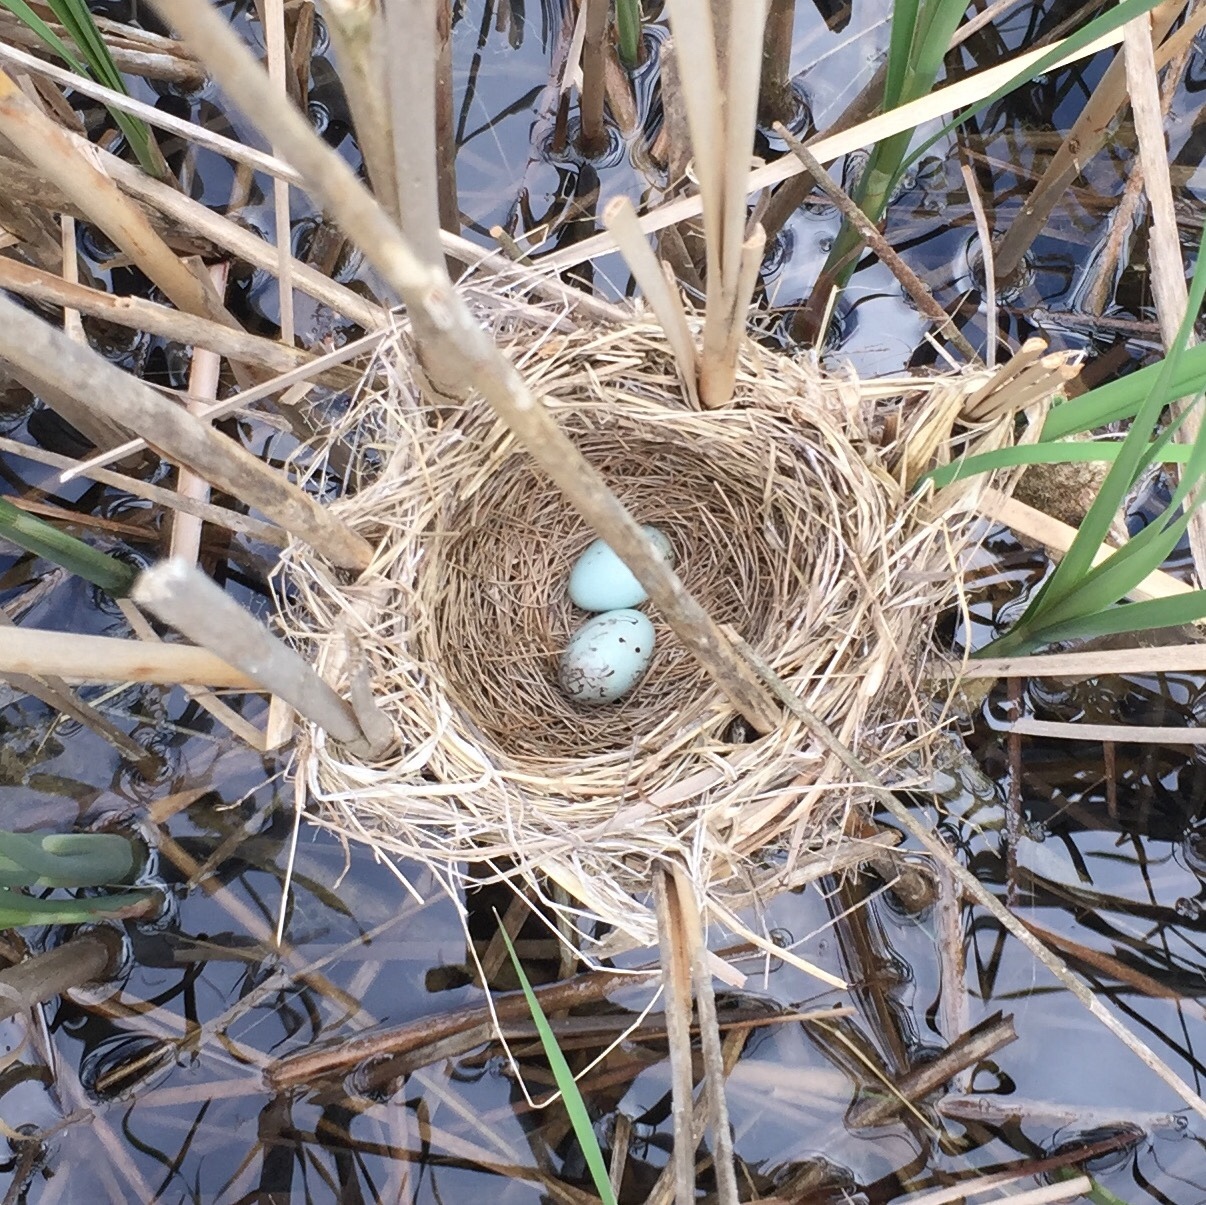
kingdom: Animalia
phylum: Chordata
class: Aves
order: Passeriformes
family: Icteridae
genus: Agelaius
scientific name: Agelaius phoeniceus
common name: Red-winged blackbird
